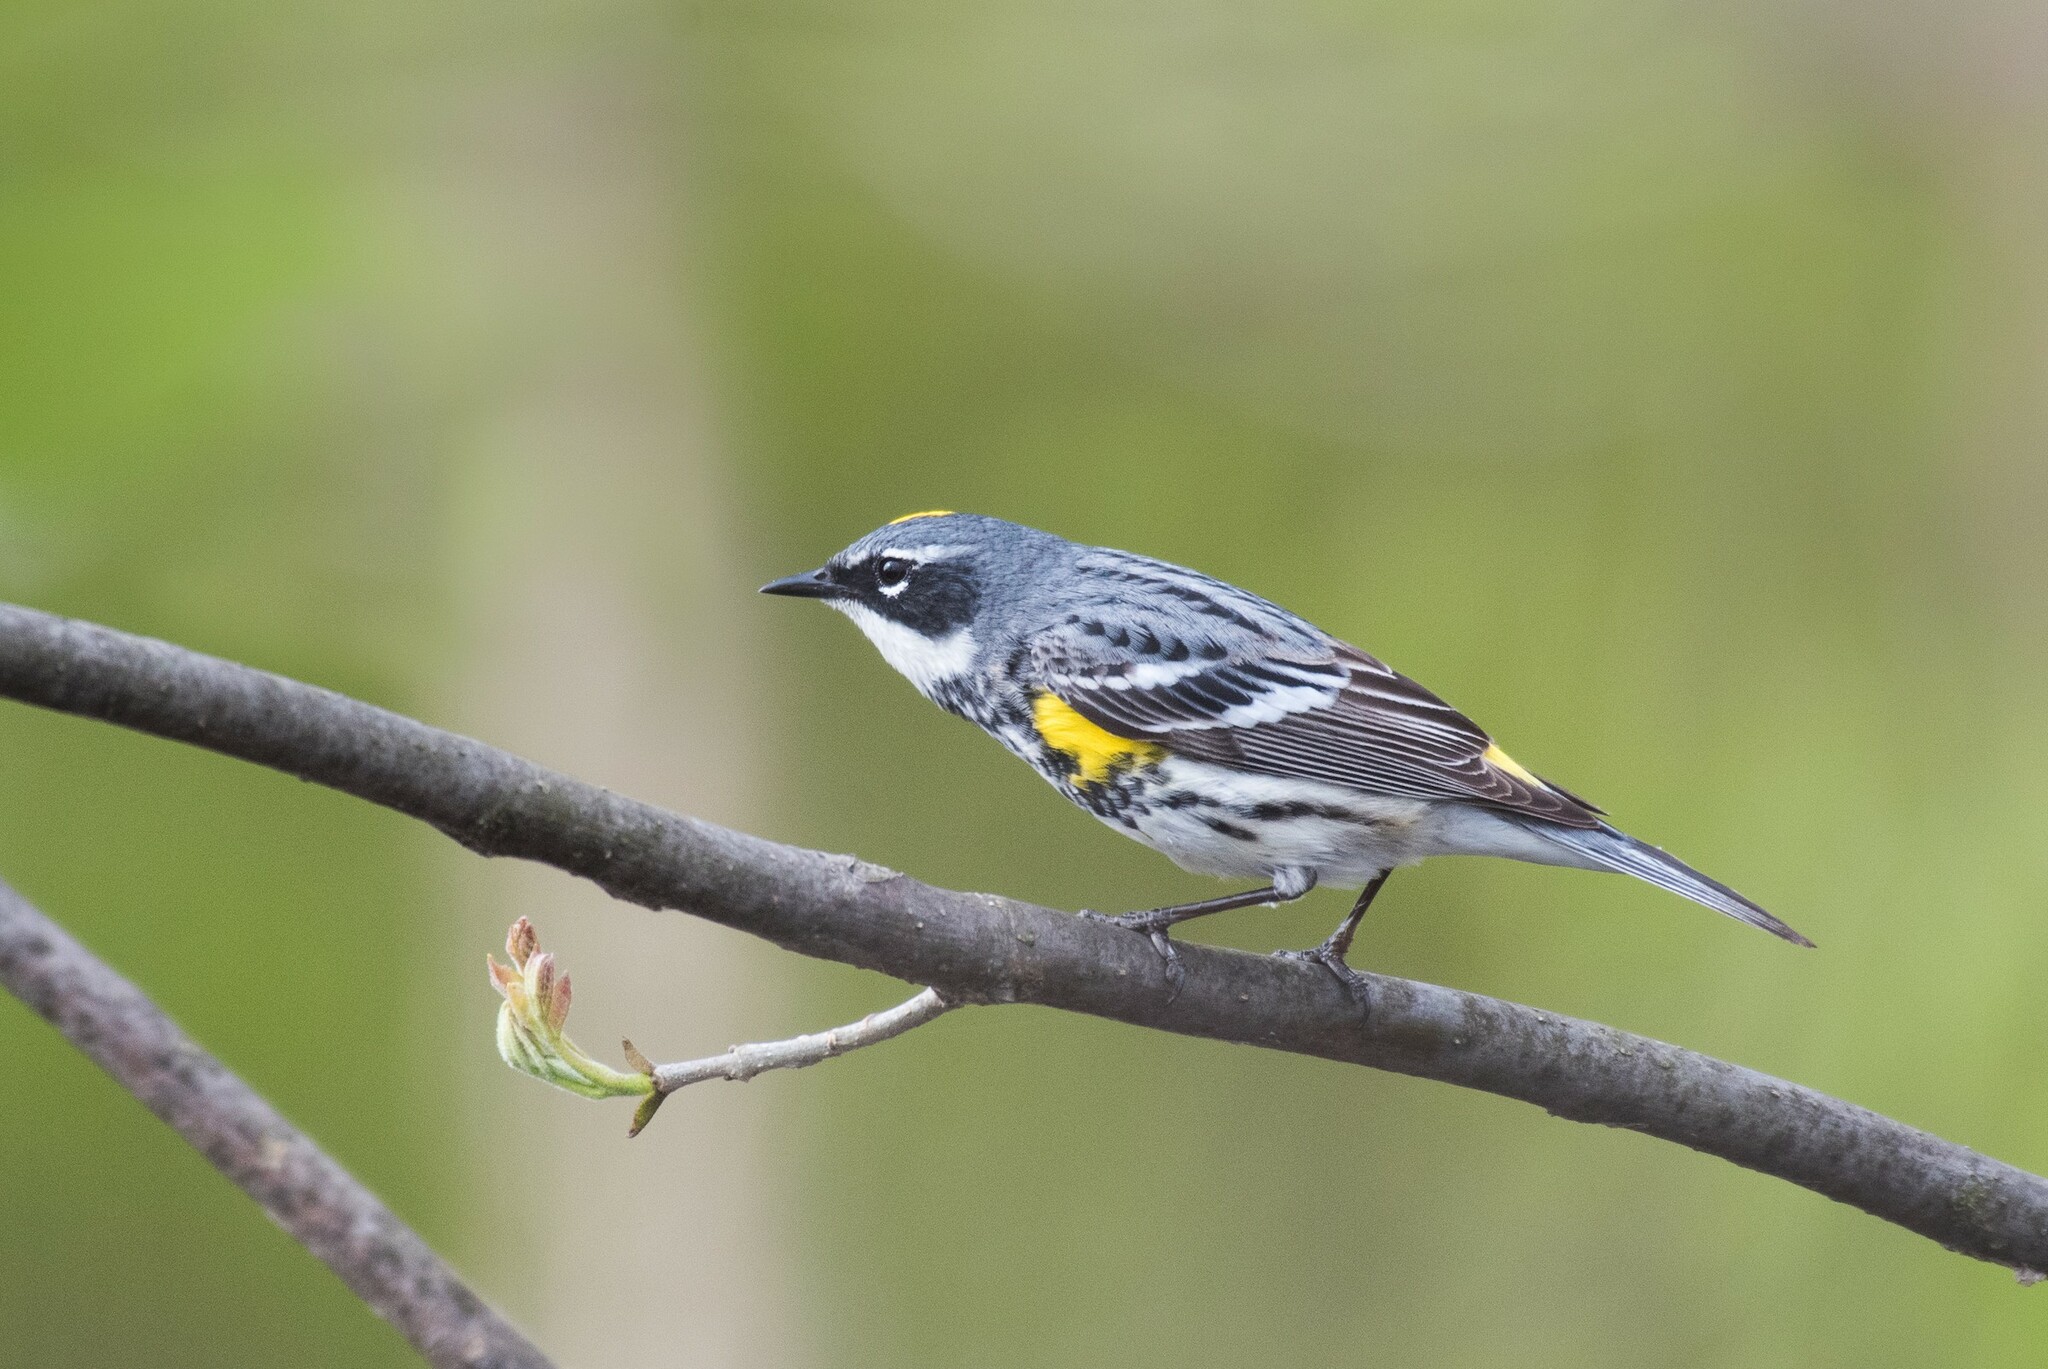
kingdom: Animalia
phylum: Chordata
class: Aves
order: Passeriformes
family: Parulidae
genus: Setophaga
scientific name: Setophaga coronata
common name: Myrtle warbler
